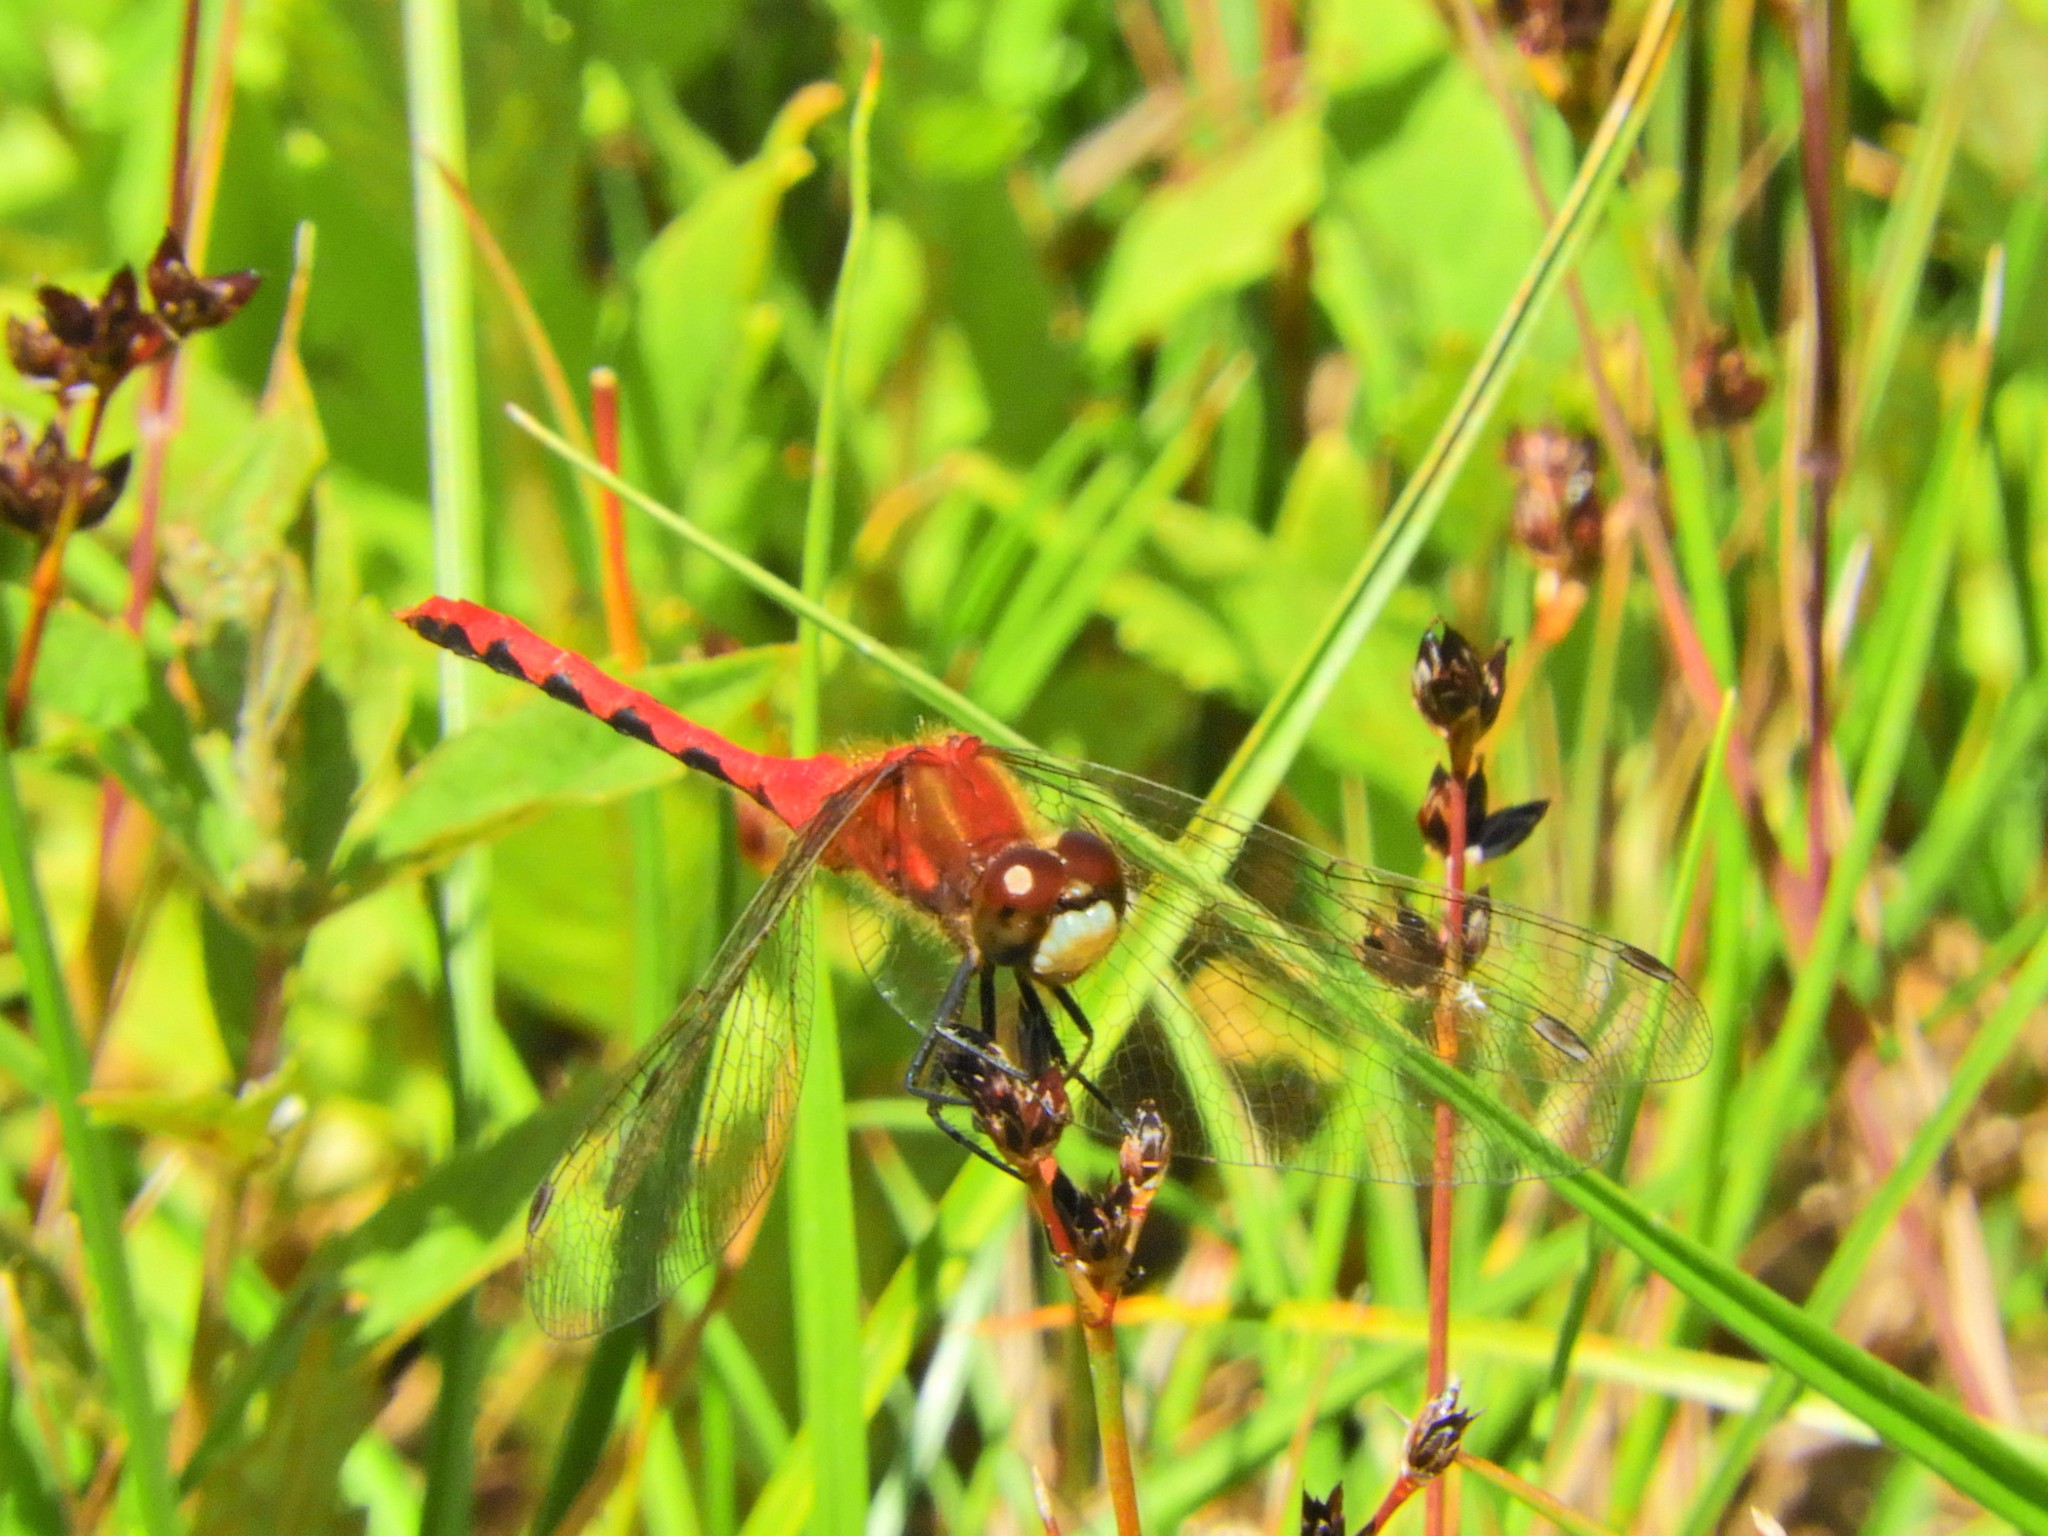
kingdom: Animalia
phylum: Arthropoda
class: Insecta
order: Odonata
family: Libellulidae
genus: Sympetrum
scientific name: Sympetrum obtrusum
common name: White-faced meadowhawk
